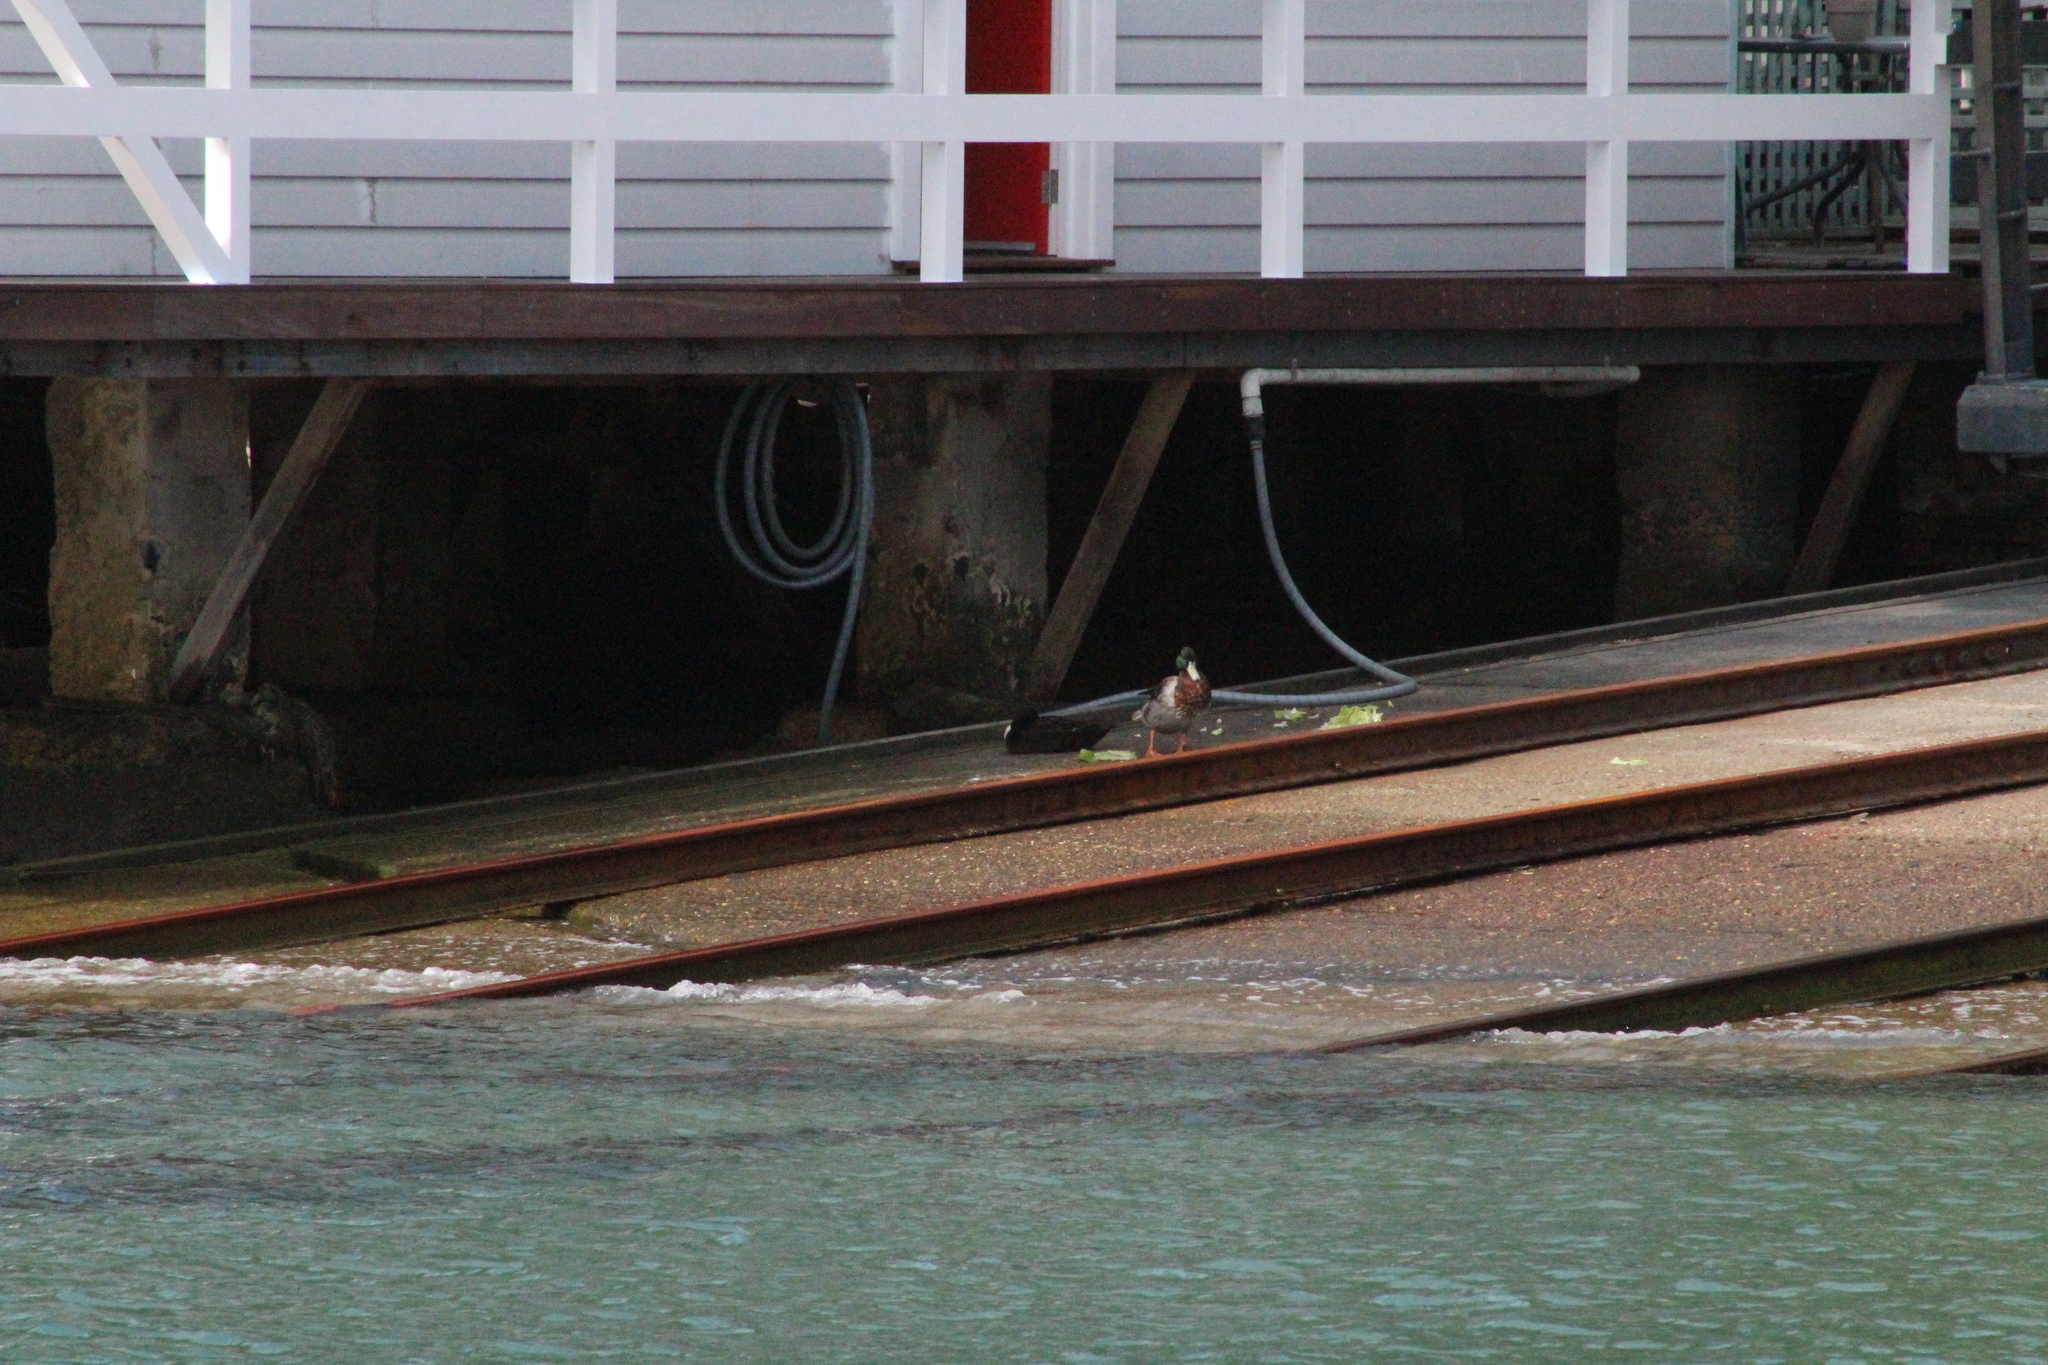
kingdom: Animalia
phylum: Chordata
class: Aves
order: Anseriformes
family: Anatidae
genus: Anas
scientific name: Anas platyrhynchos
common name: Mallard
